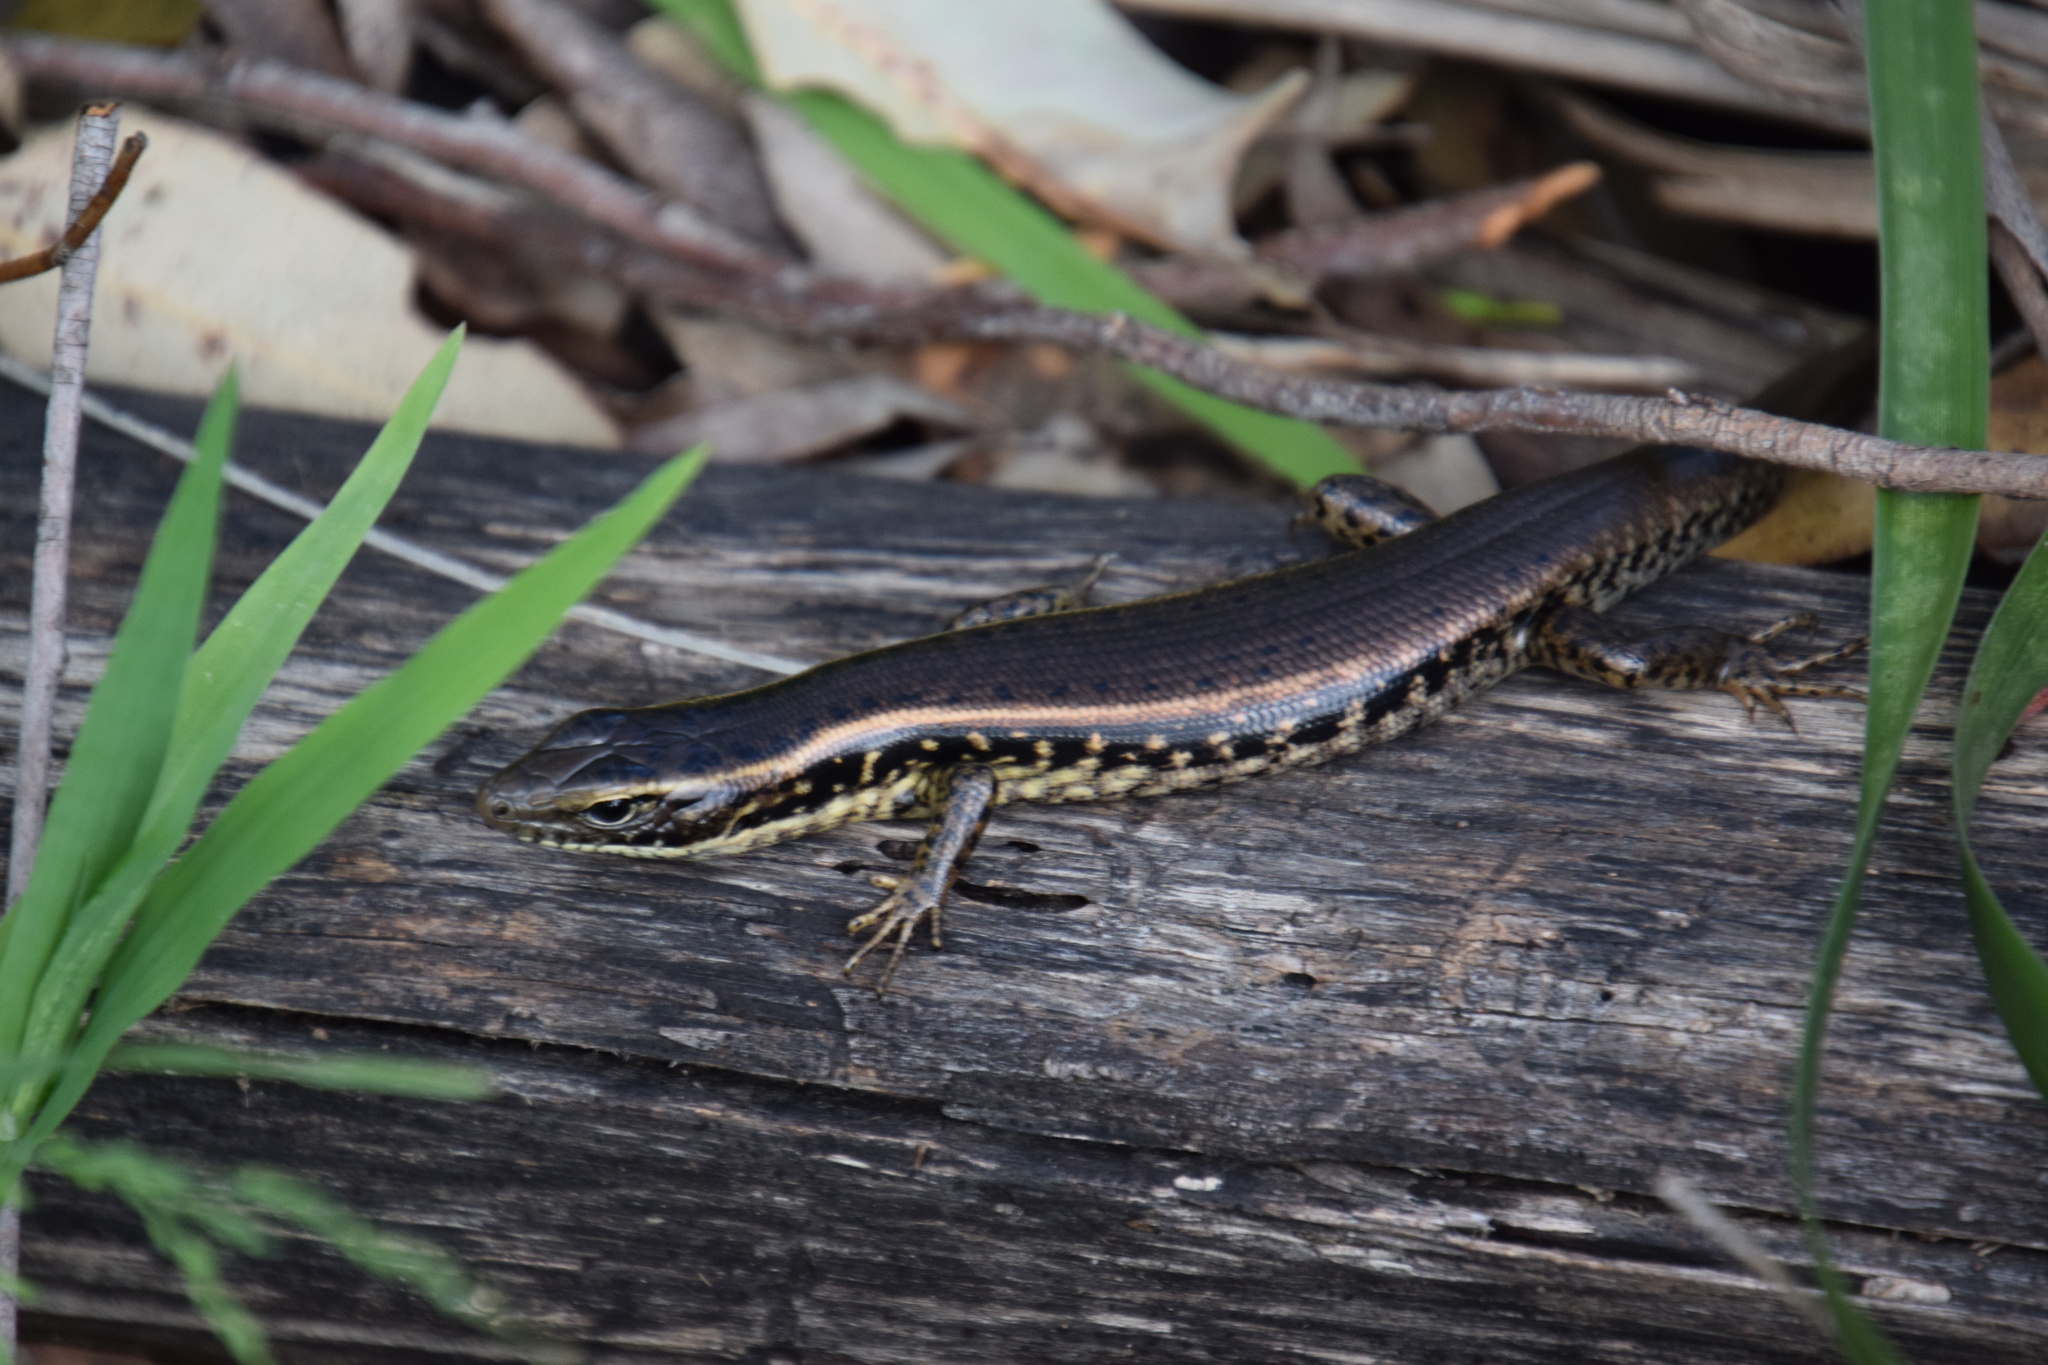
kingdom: Animalia
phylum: Chordata
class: Squamata
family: Scincidae
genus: Eulamprus
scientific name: Eulamprus quoyii
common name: Eastern water skink
